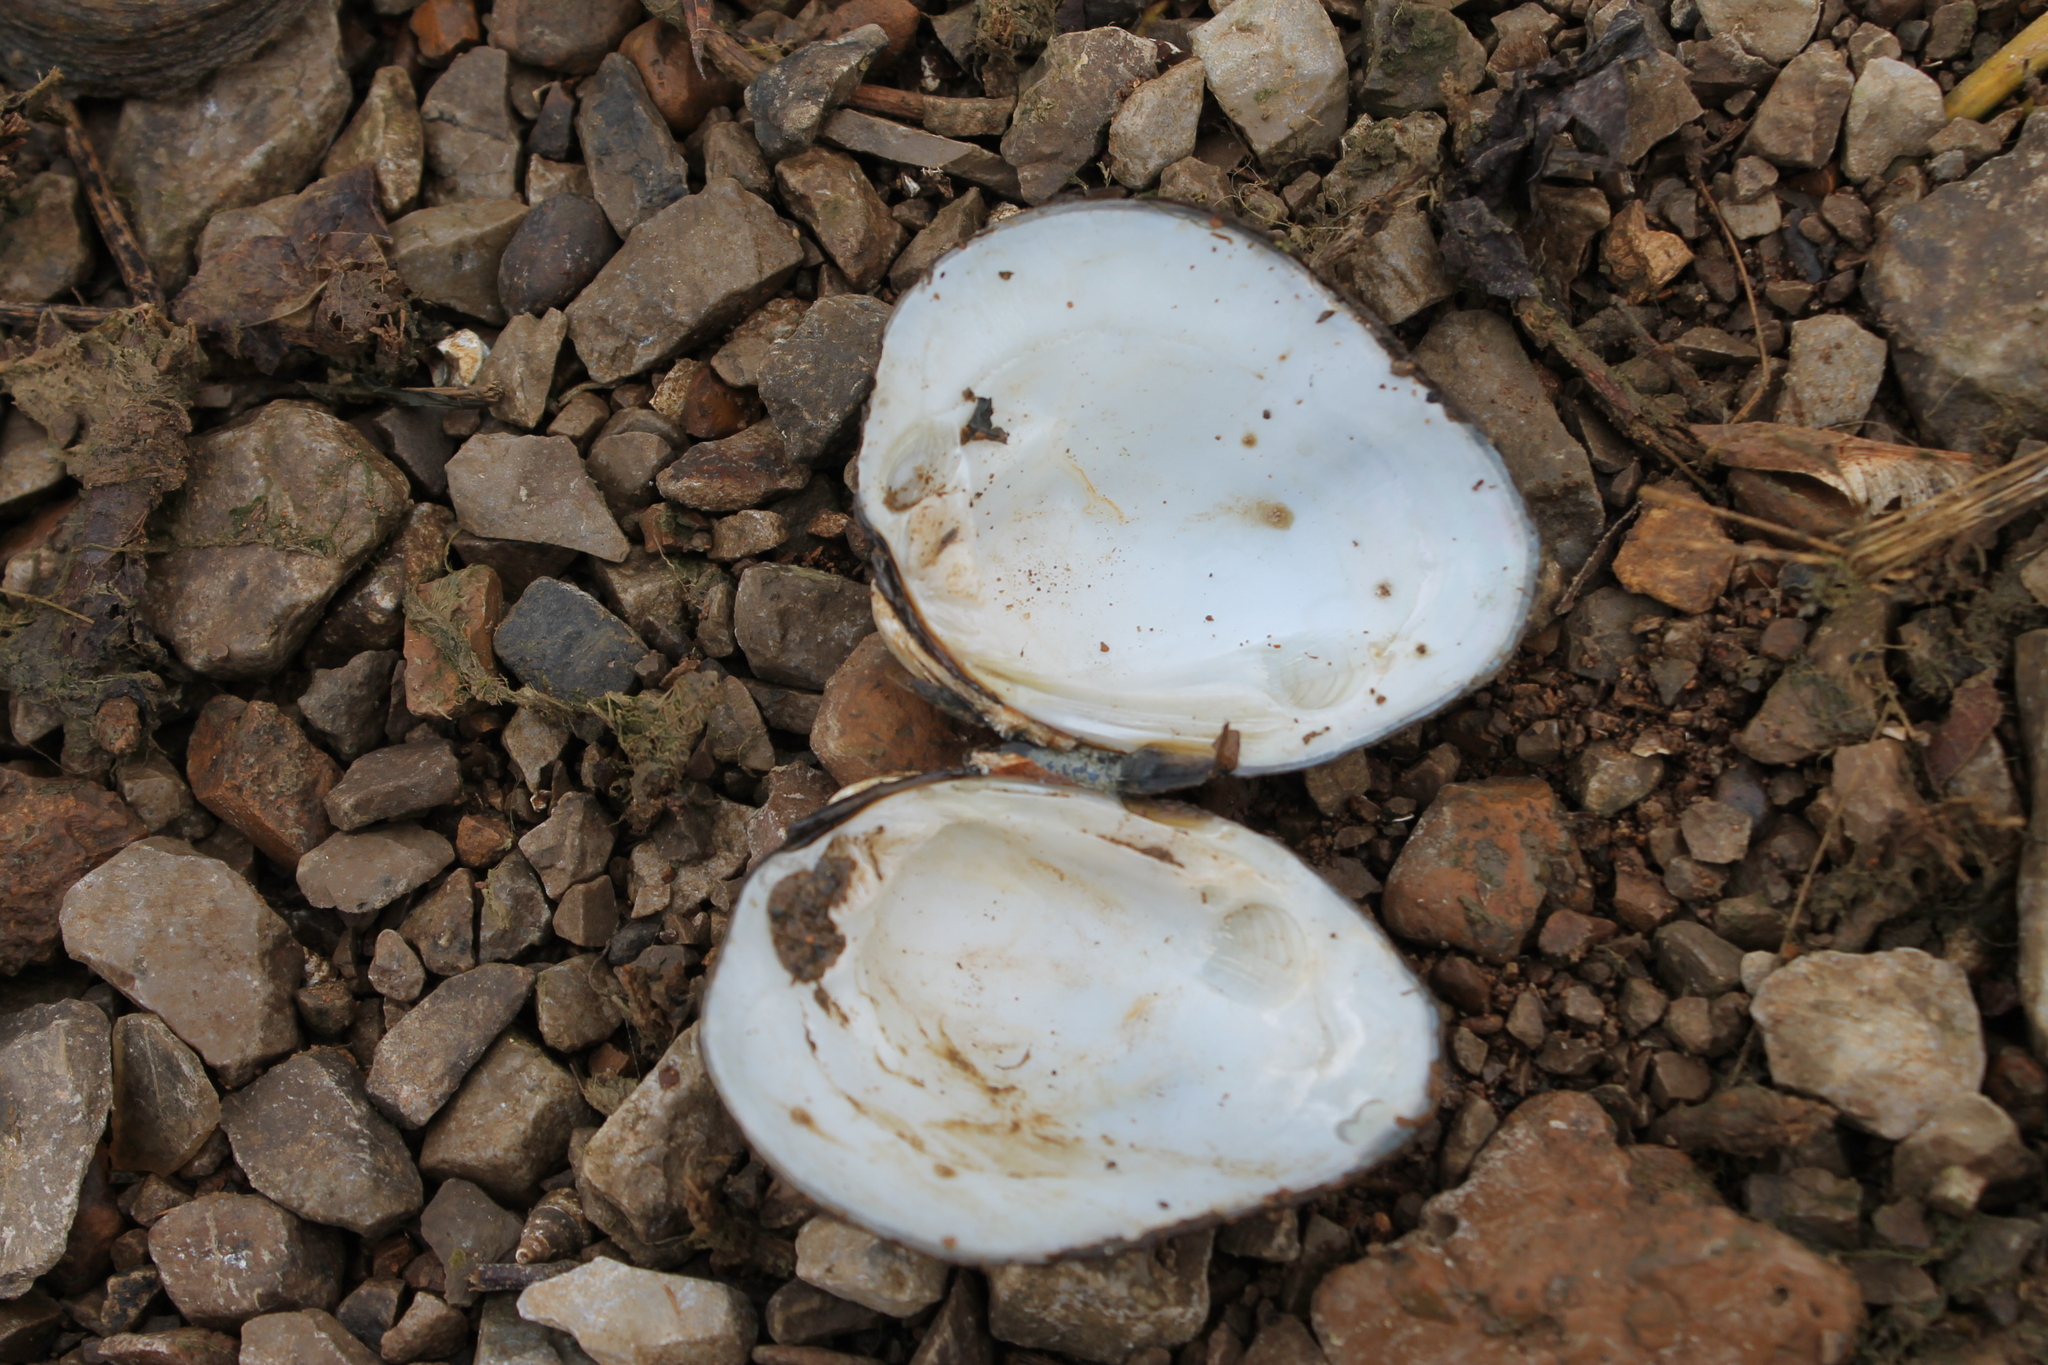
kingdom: Animalia
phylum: Mollusca
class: Bivalvia
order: Unionida
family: Unionidae
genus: Pleuronaia
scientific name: Pleuronaia barnesiana
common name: Tennessee pigtoe
